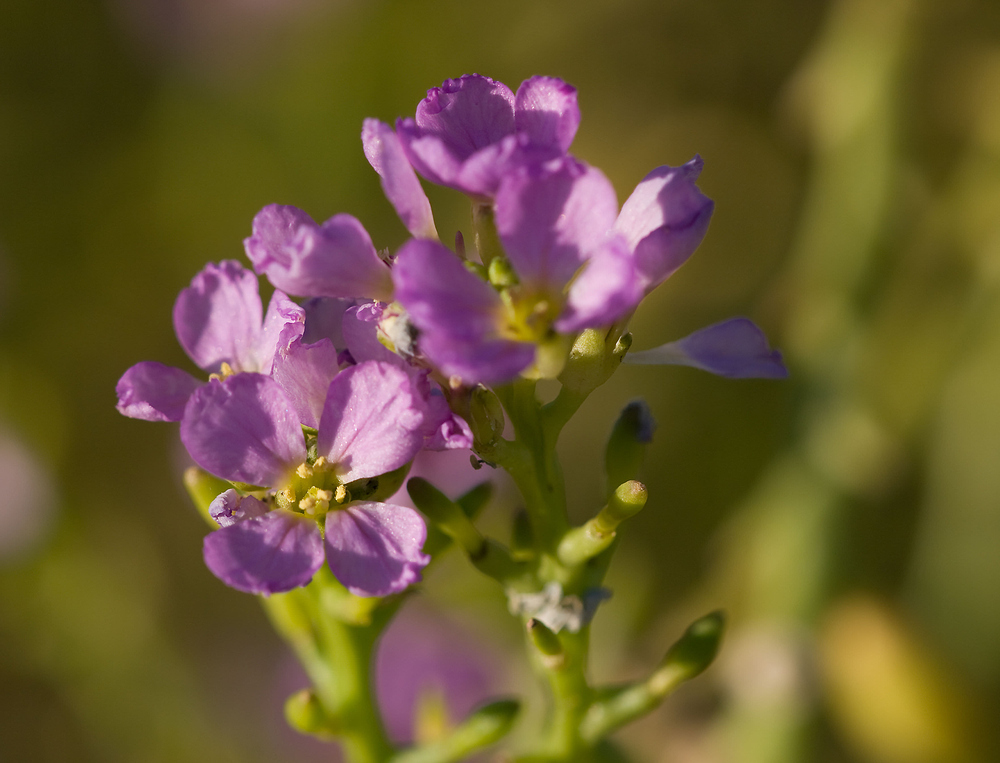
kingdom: Plantae
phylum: Tracheophyta
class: Magnoliopsida
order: Brassicales
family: Brassicaceae
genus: Cakile
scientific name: Cakile maritima
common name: Sea rocket
